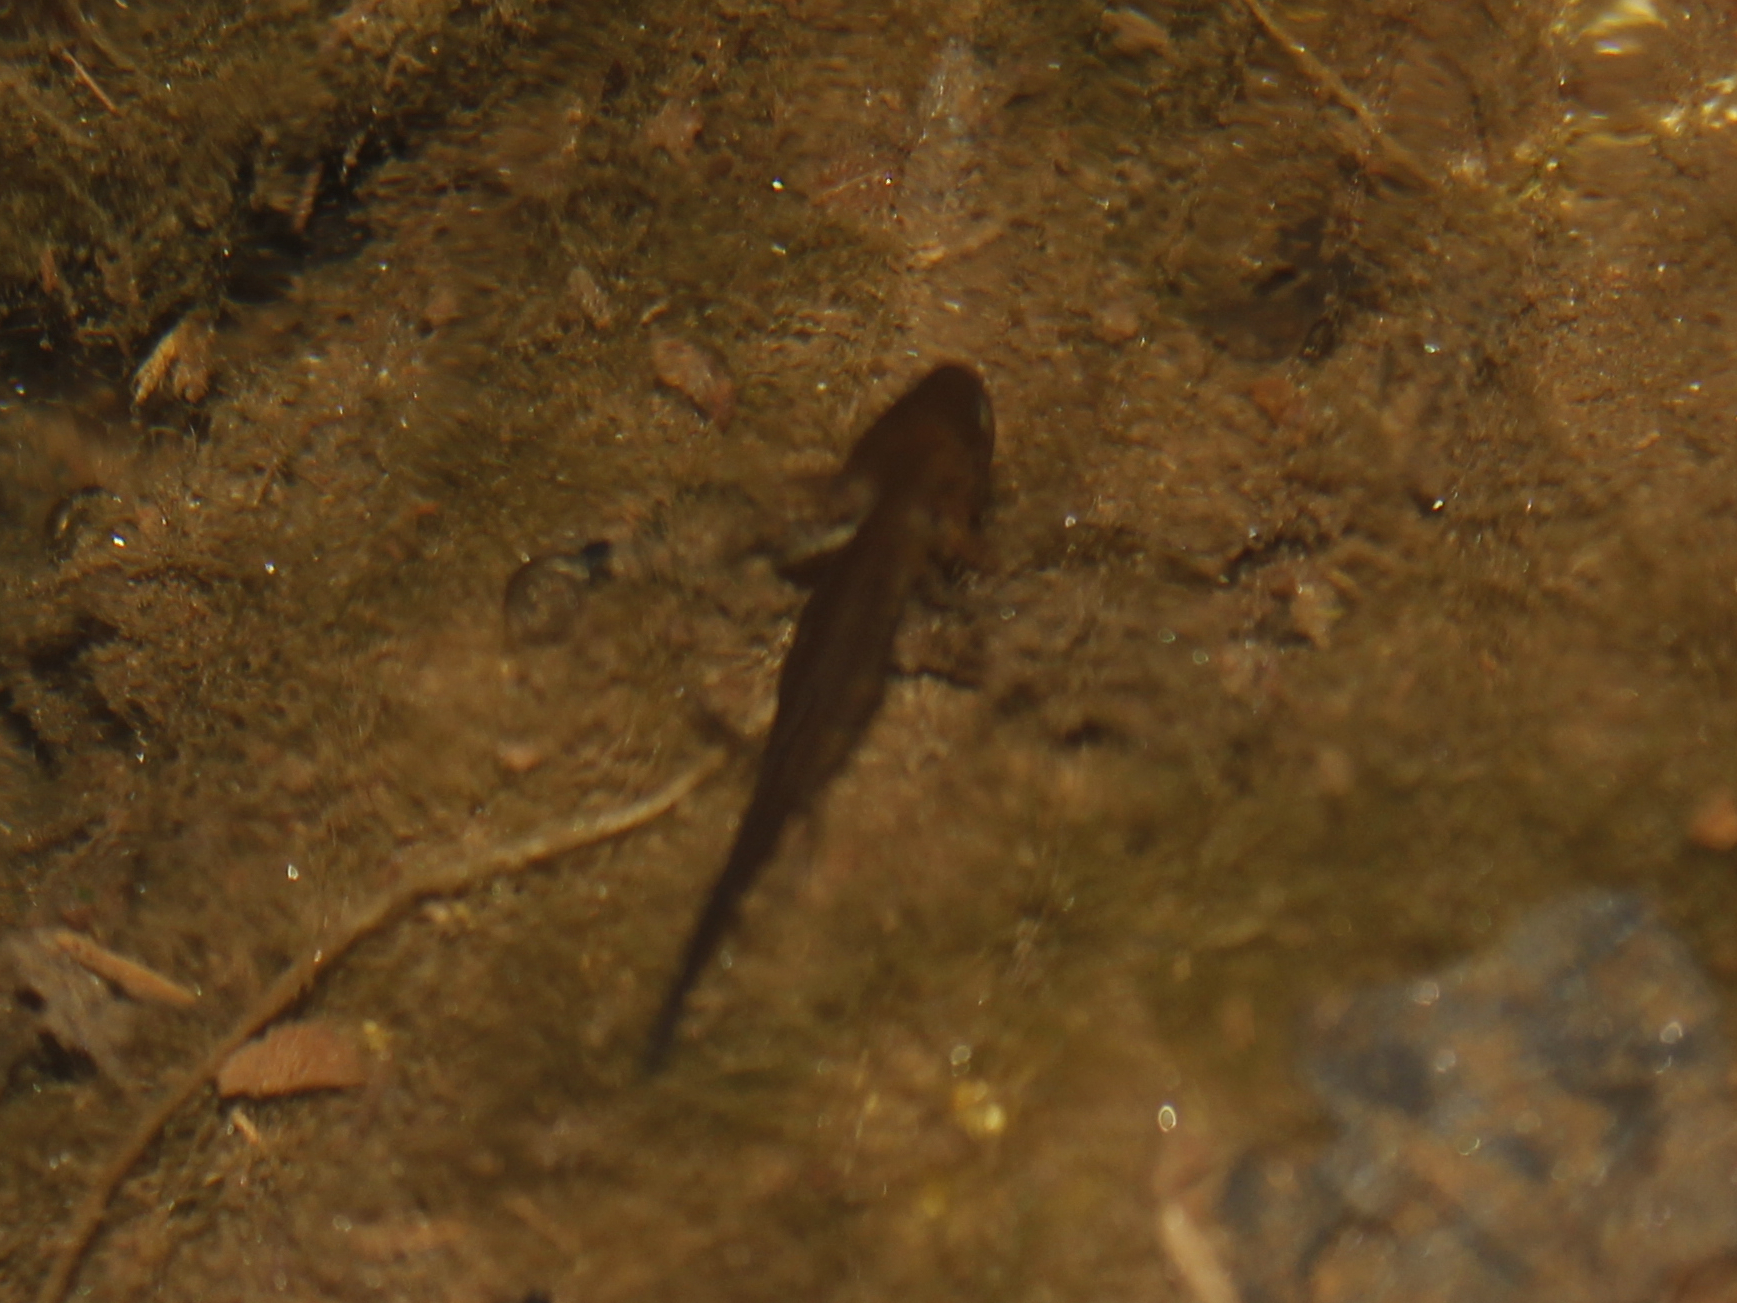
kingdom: Animalia
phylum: Chordata
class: Amphibia
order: Caudata
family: Ambystomatidae
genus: Ambystoma
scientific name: Ambystoma maculatum
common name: Spotted salamander
